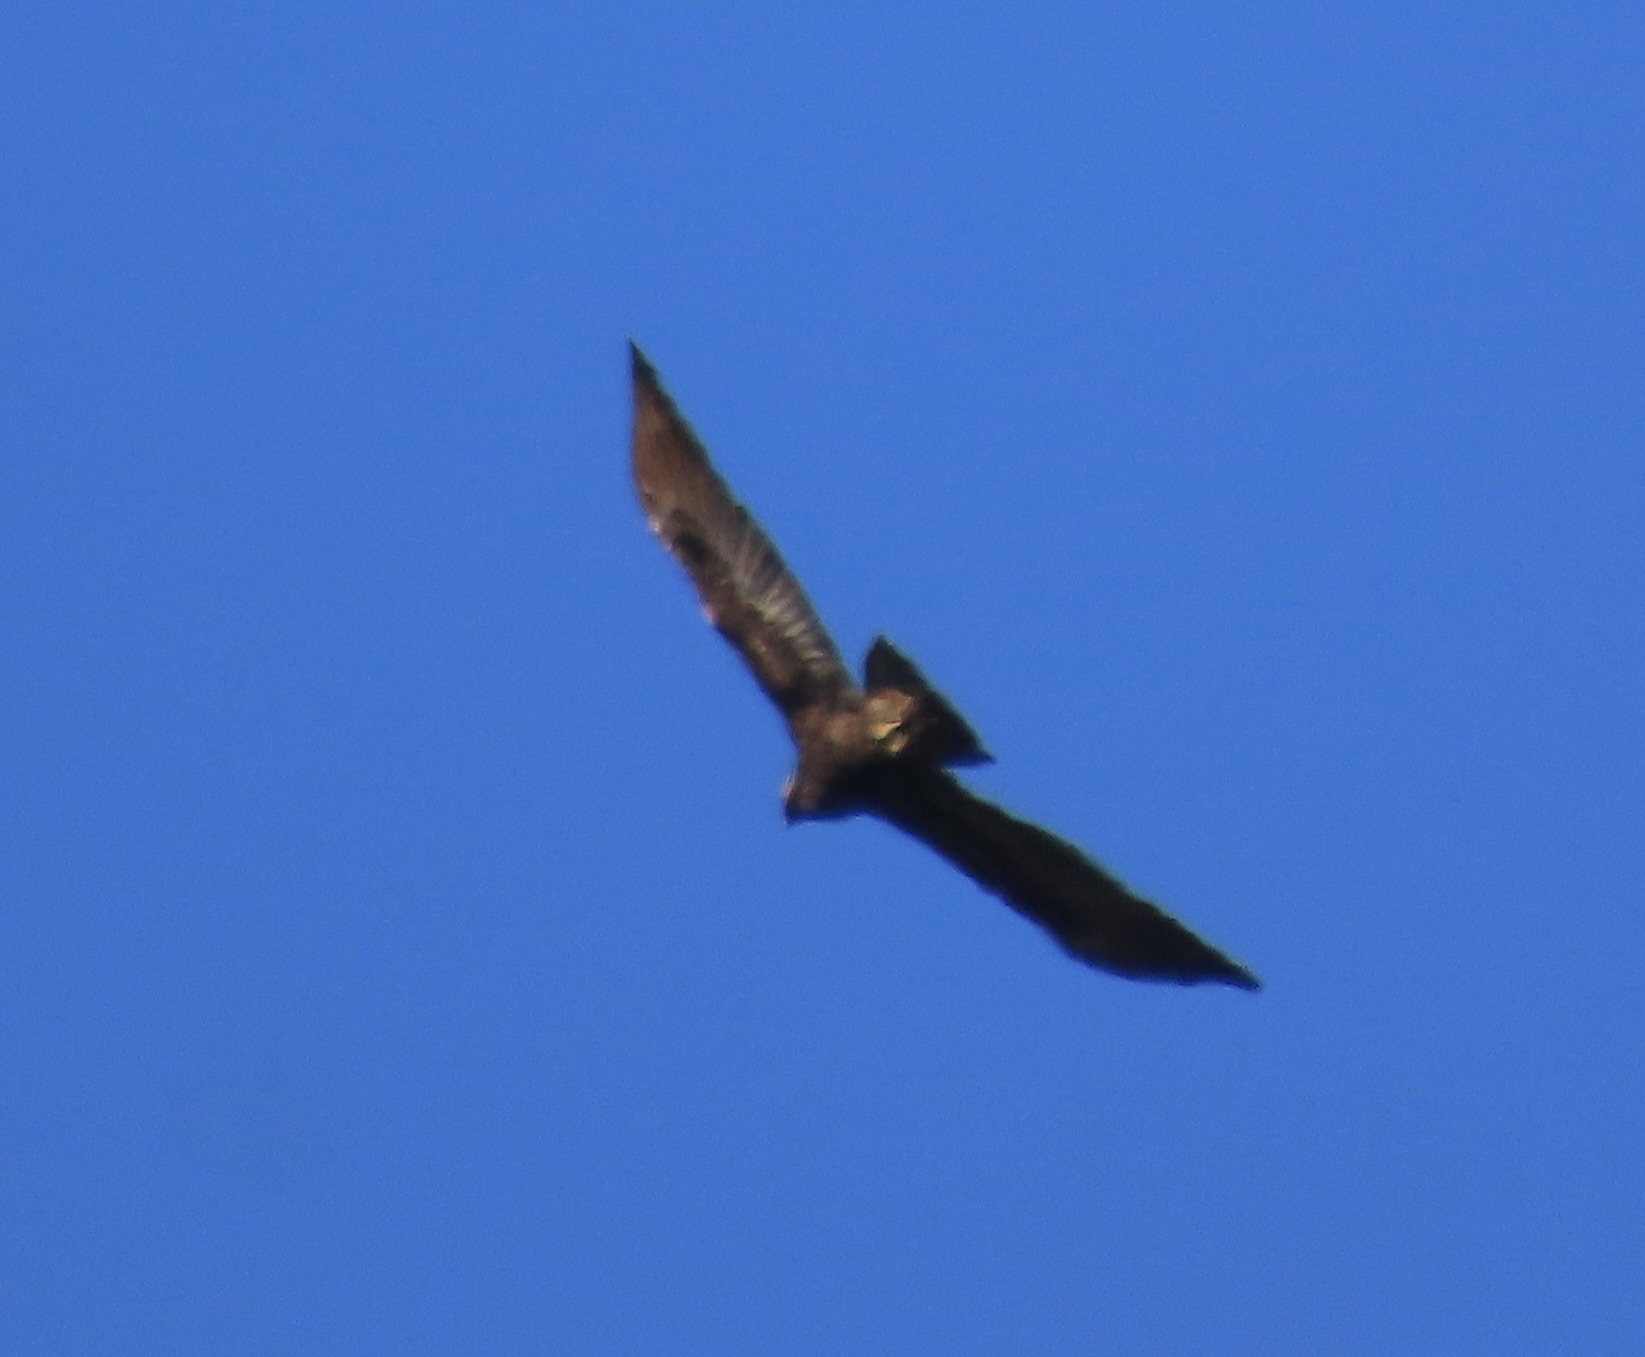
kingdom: Animalia
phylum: Chordata
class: Aves
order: Accipitriformes
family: Accipitridae
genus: Aquila
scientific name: Aquila chrysaetos
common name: Golden eagle
